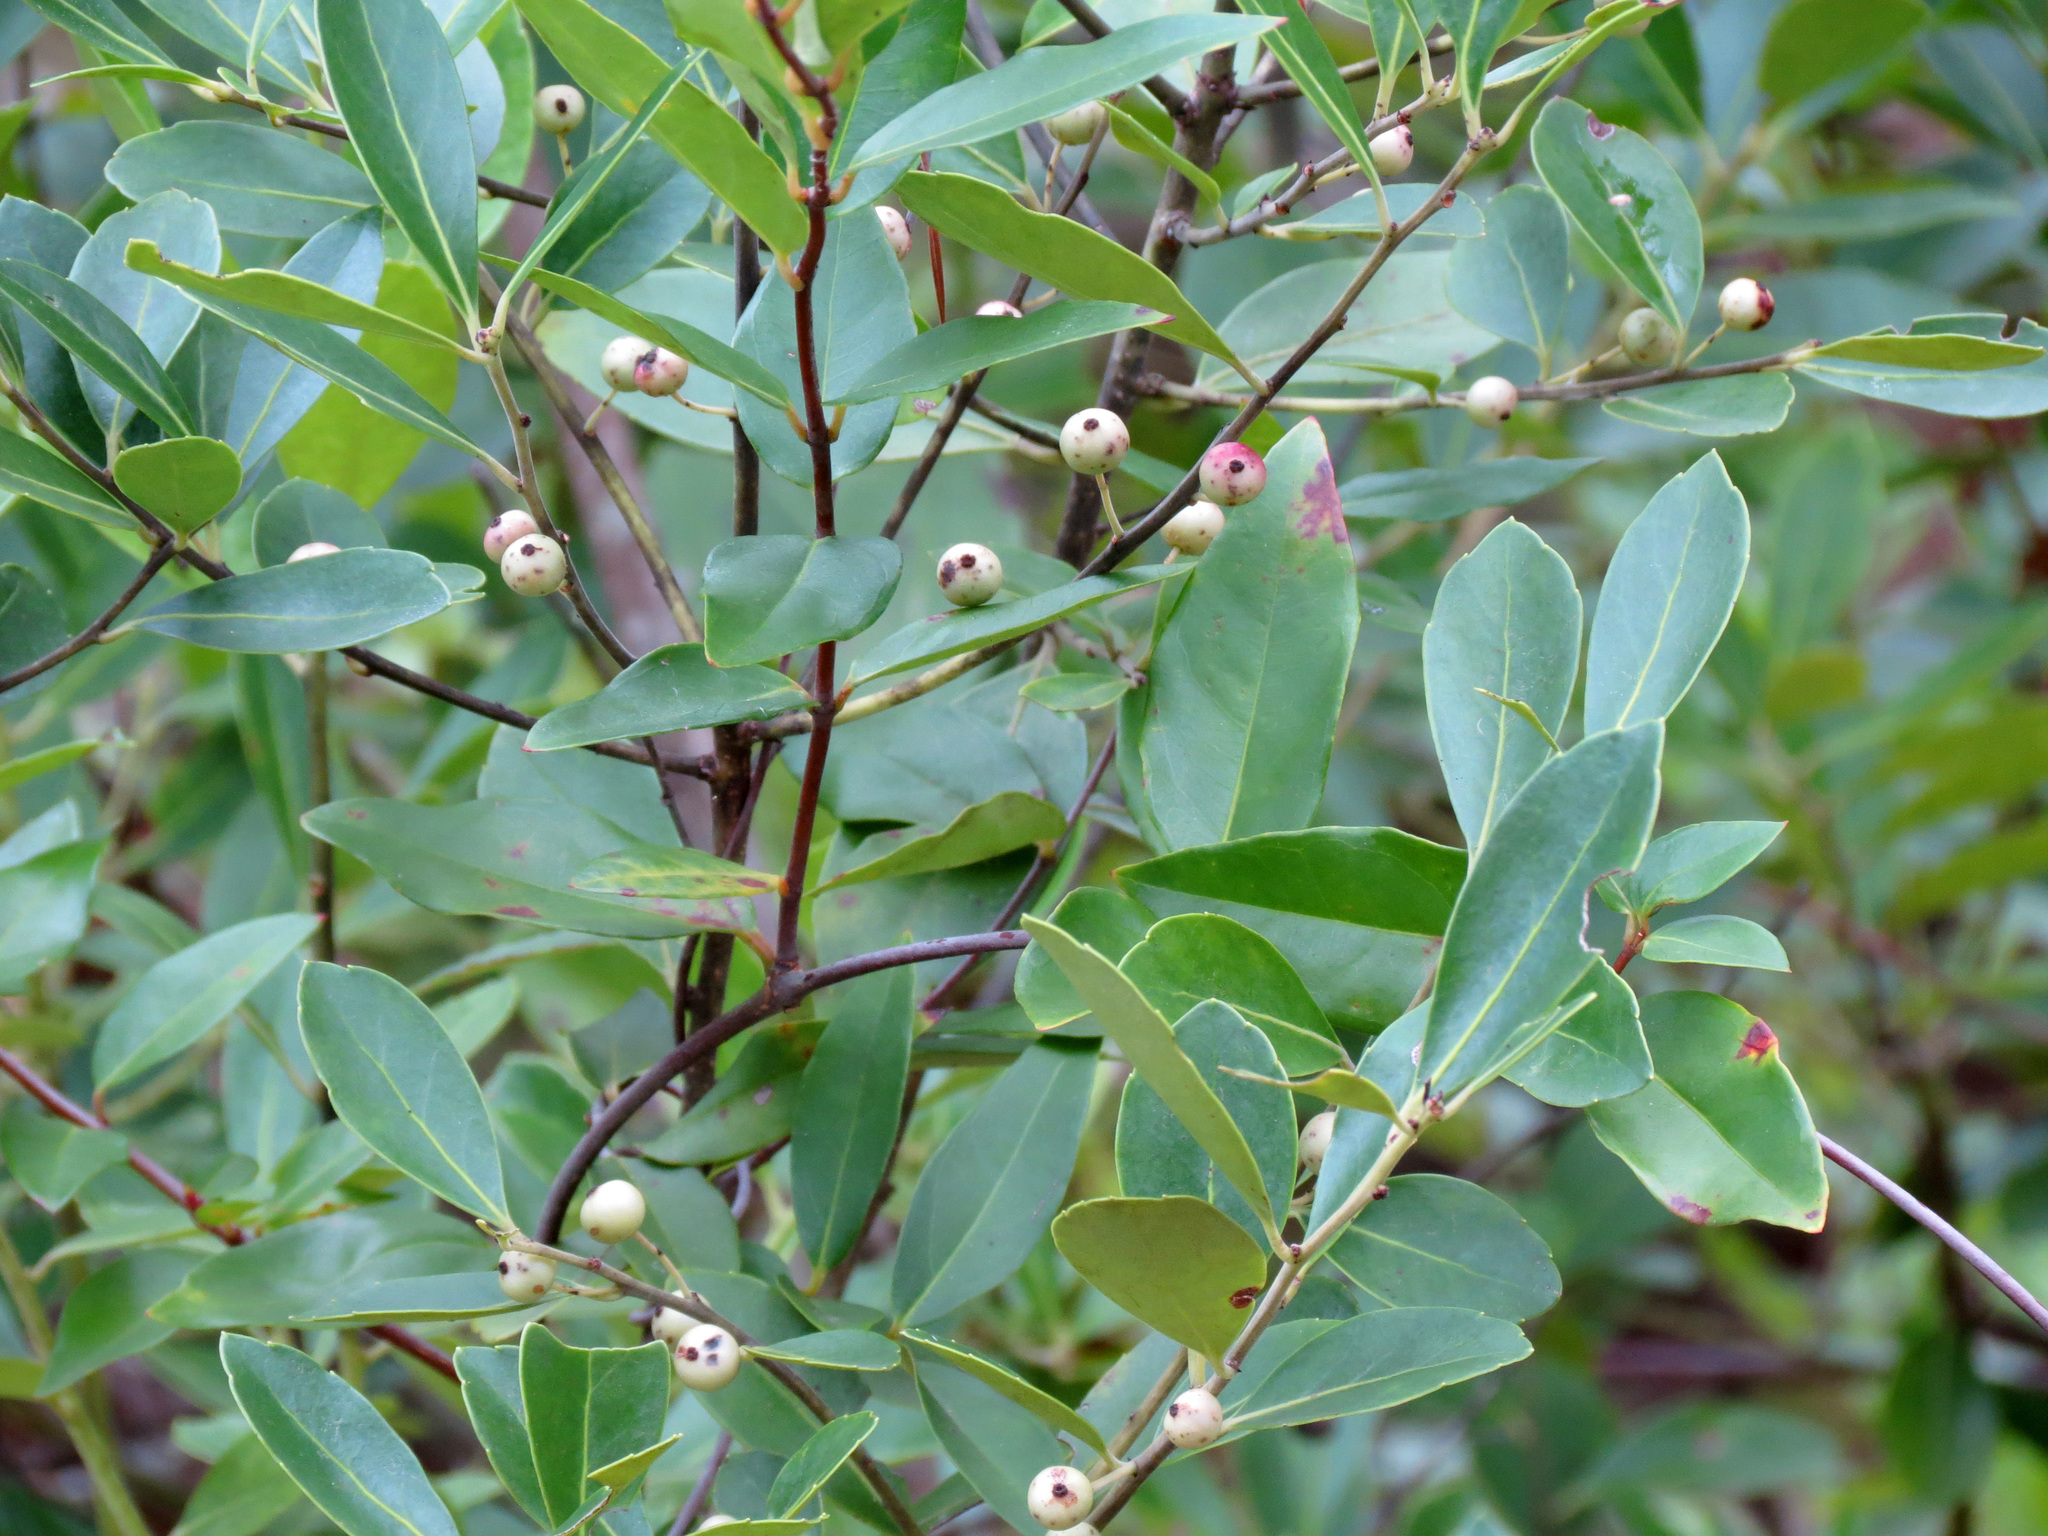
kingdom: Plantae
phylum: Tracheophyta
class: Magnoliopsida
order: Aquifoliales
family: Aquifoliaceae
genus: Ilex
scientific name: Ilex glabra
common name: Bitter gallberry
